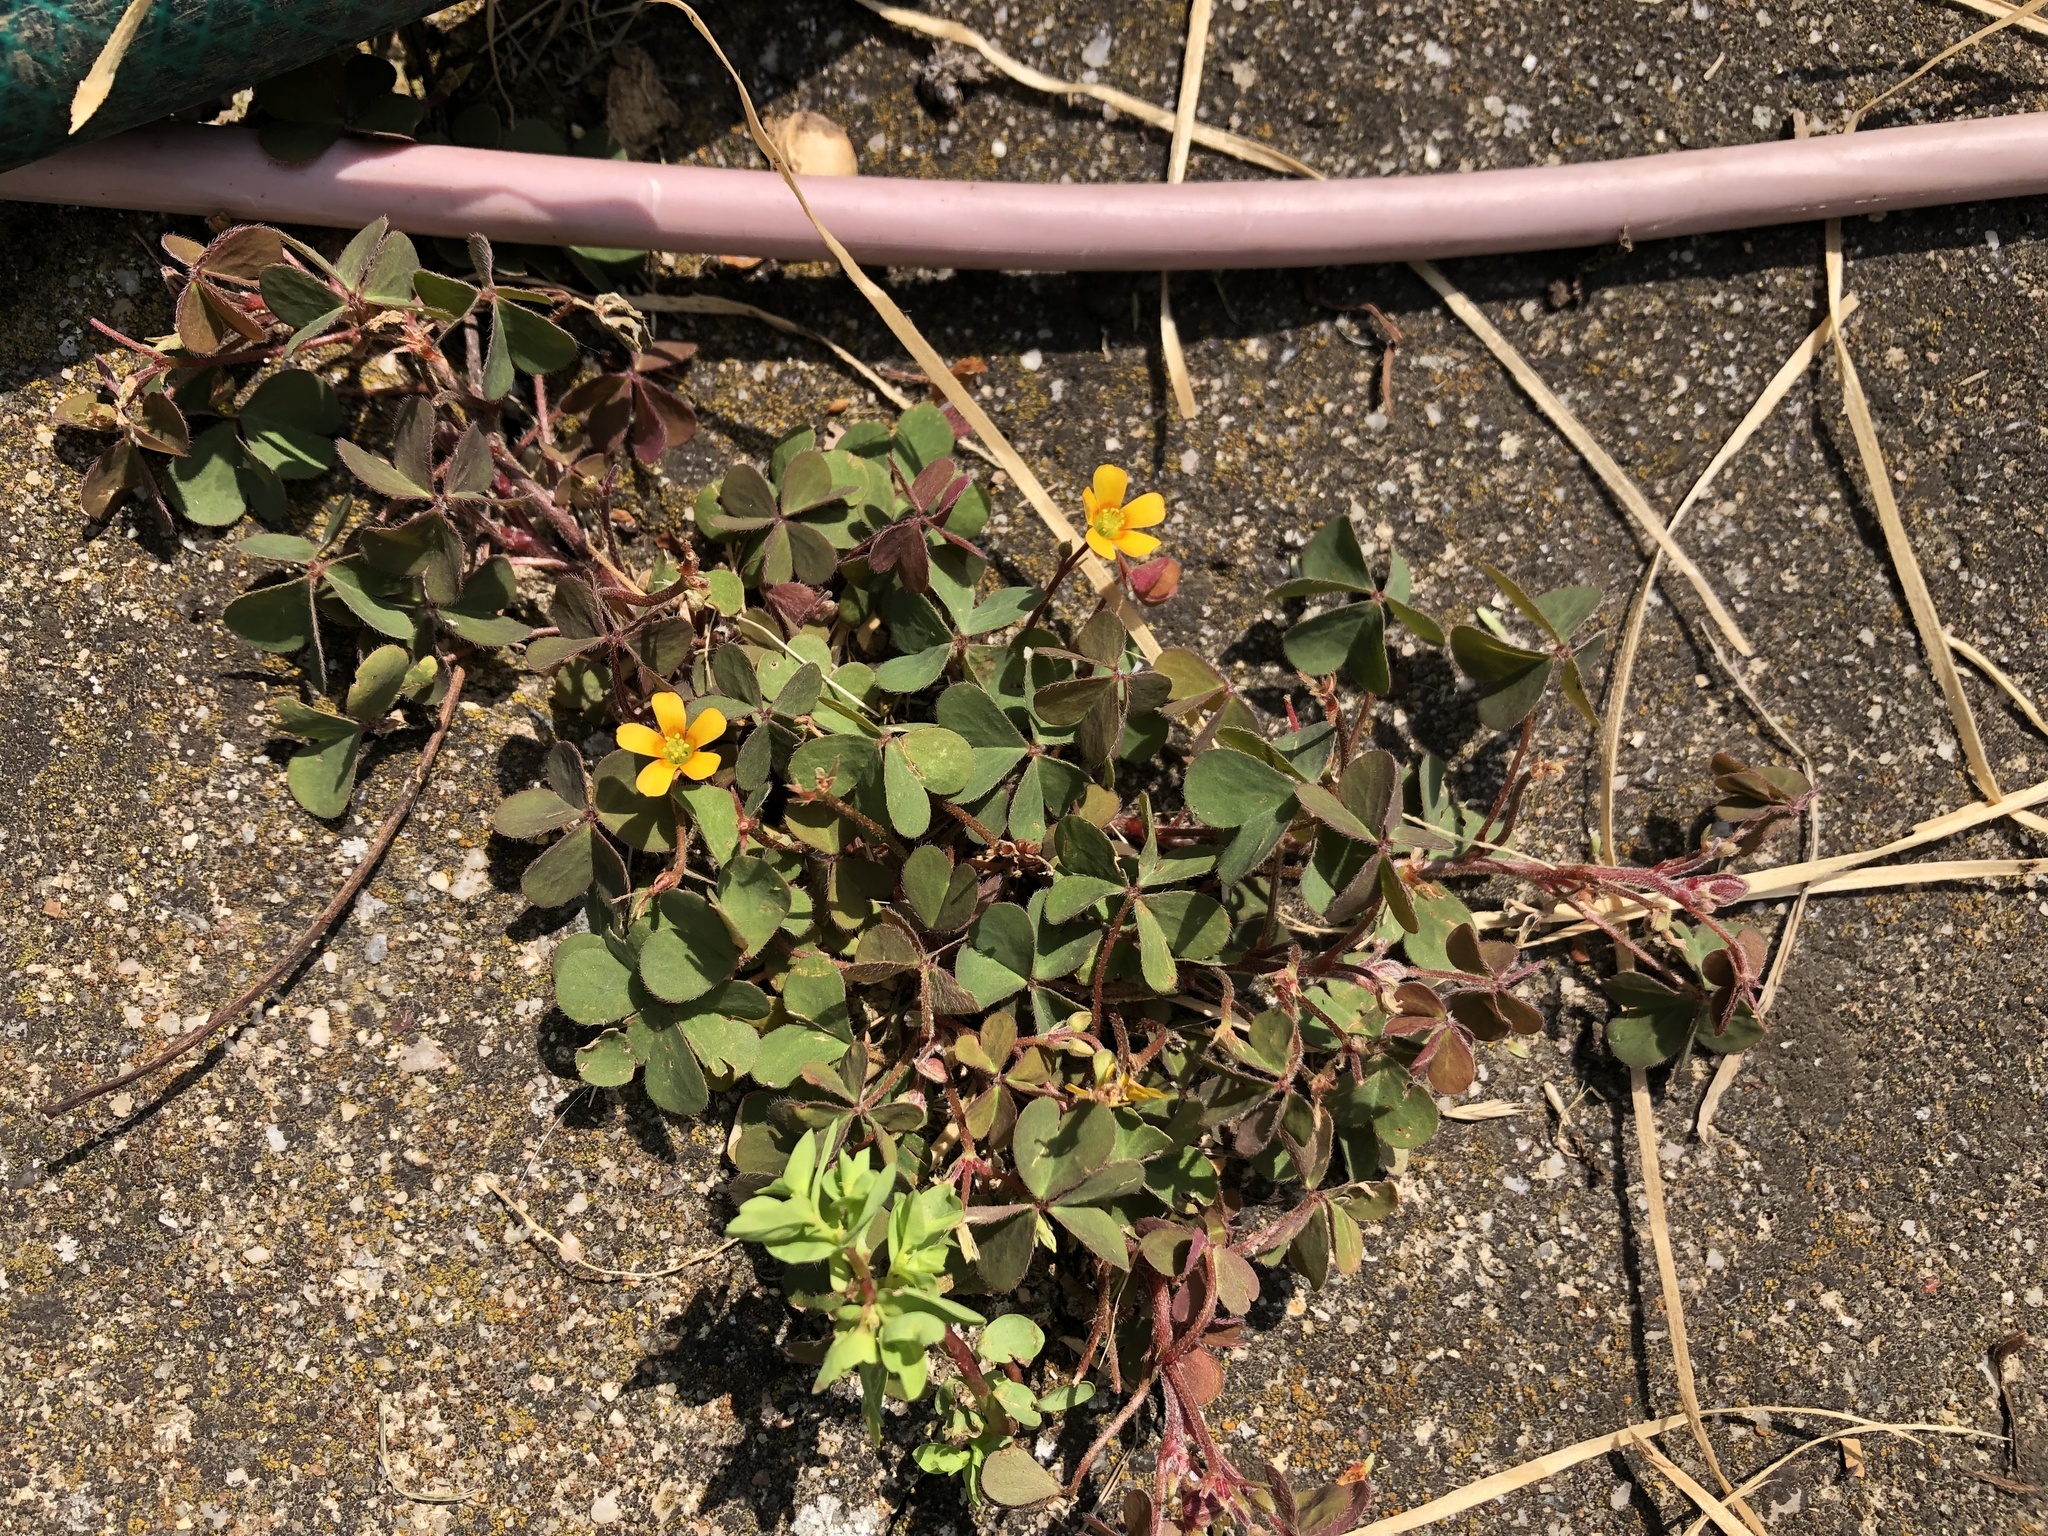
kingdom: Plantae
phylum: Tracheophyta
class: Magnoliopsida
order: Oxalidales
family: Oxalidaceae
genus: Oxalis
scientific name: Oxalis corniculata
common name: Procumbent yellow-sorrel
